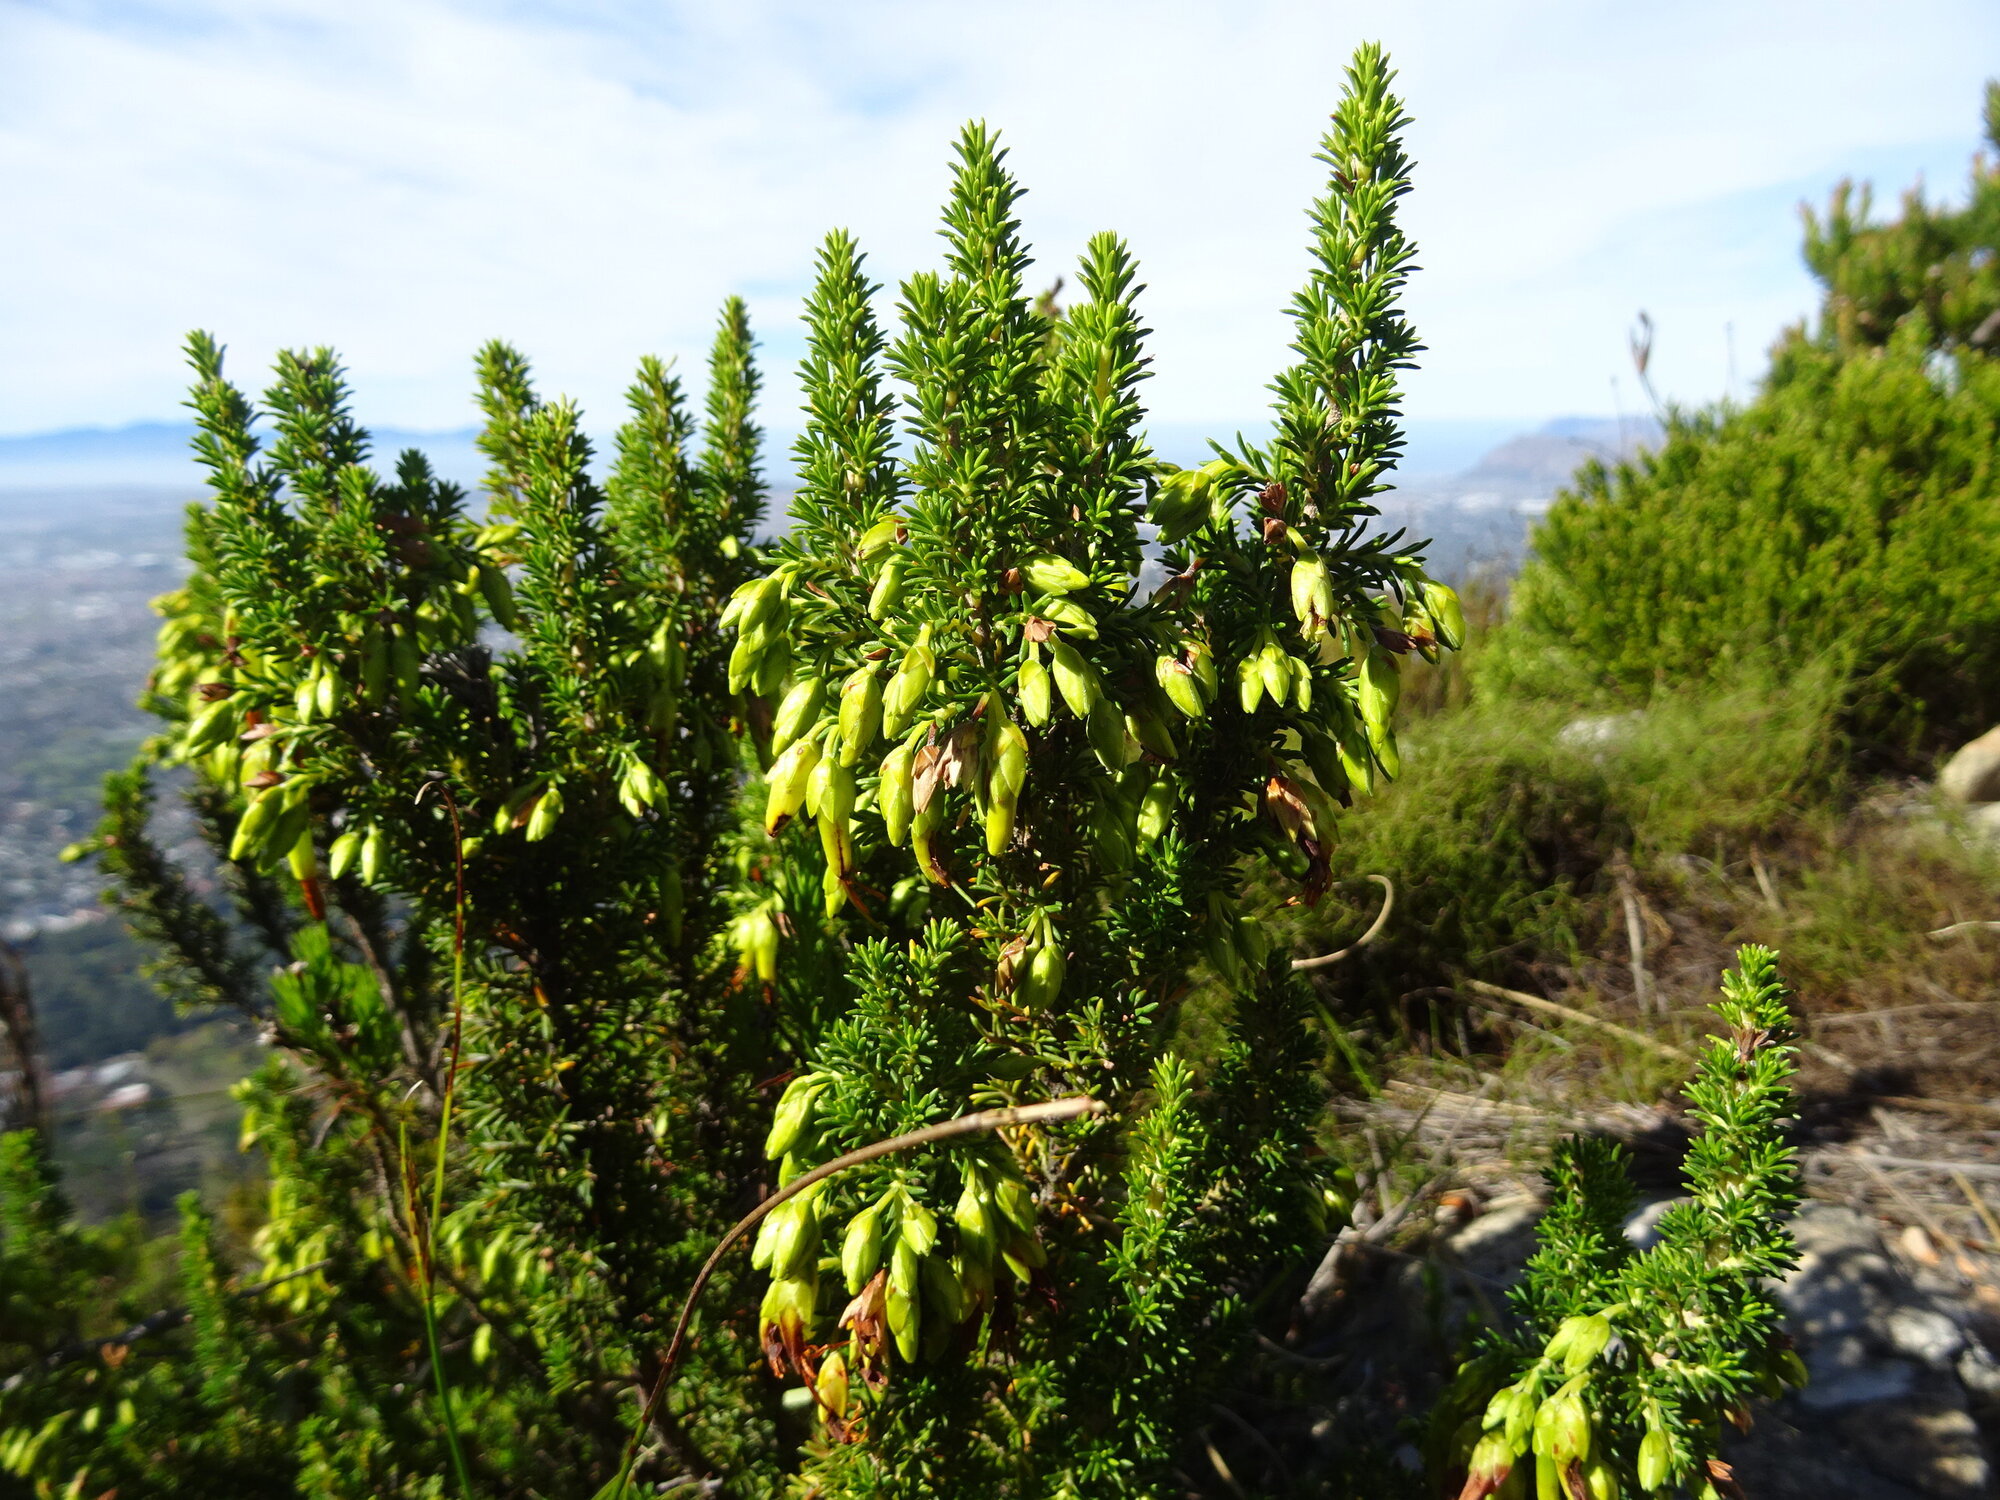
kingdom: Plantae
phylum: Tracheophyta
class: Magnoliopsida
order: Ericales
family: Ericaceae
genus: Erica
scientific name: Erica coccinea
